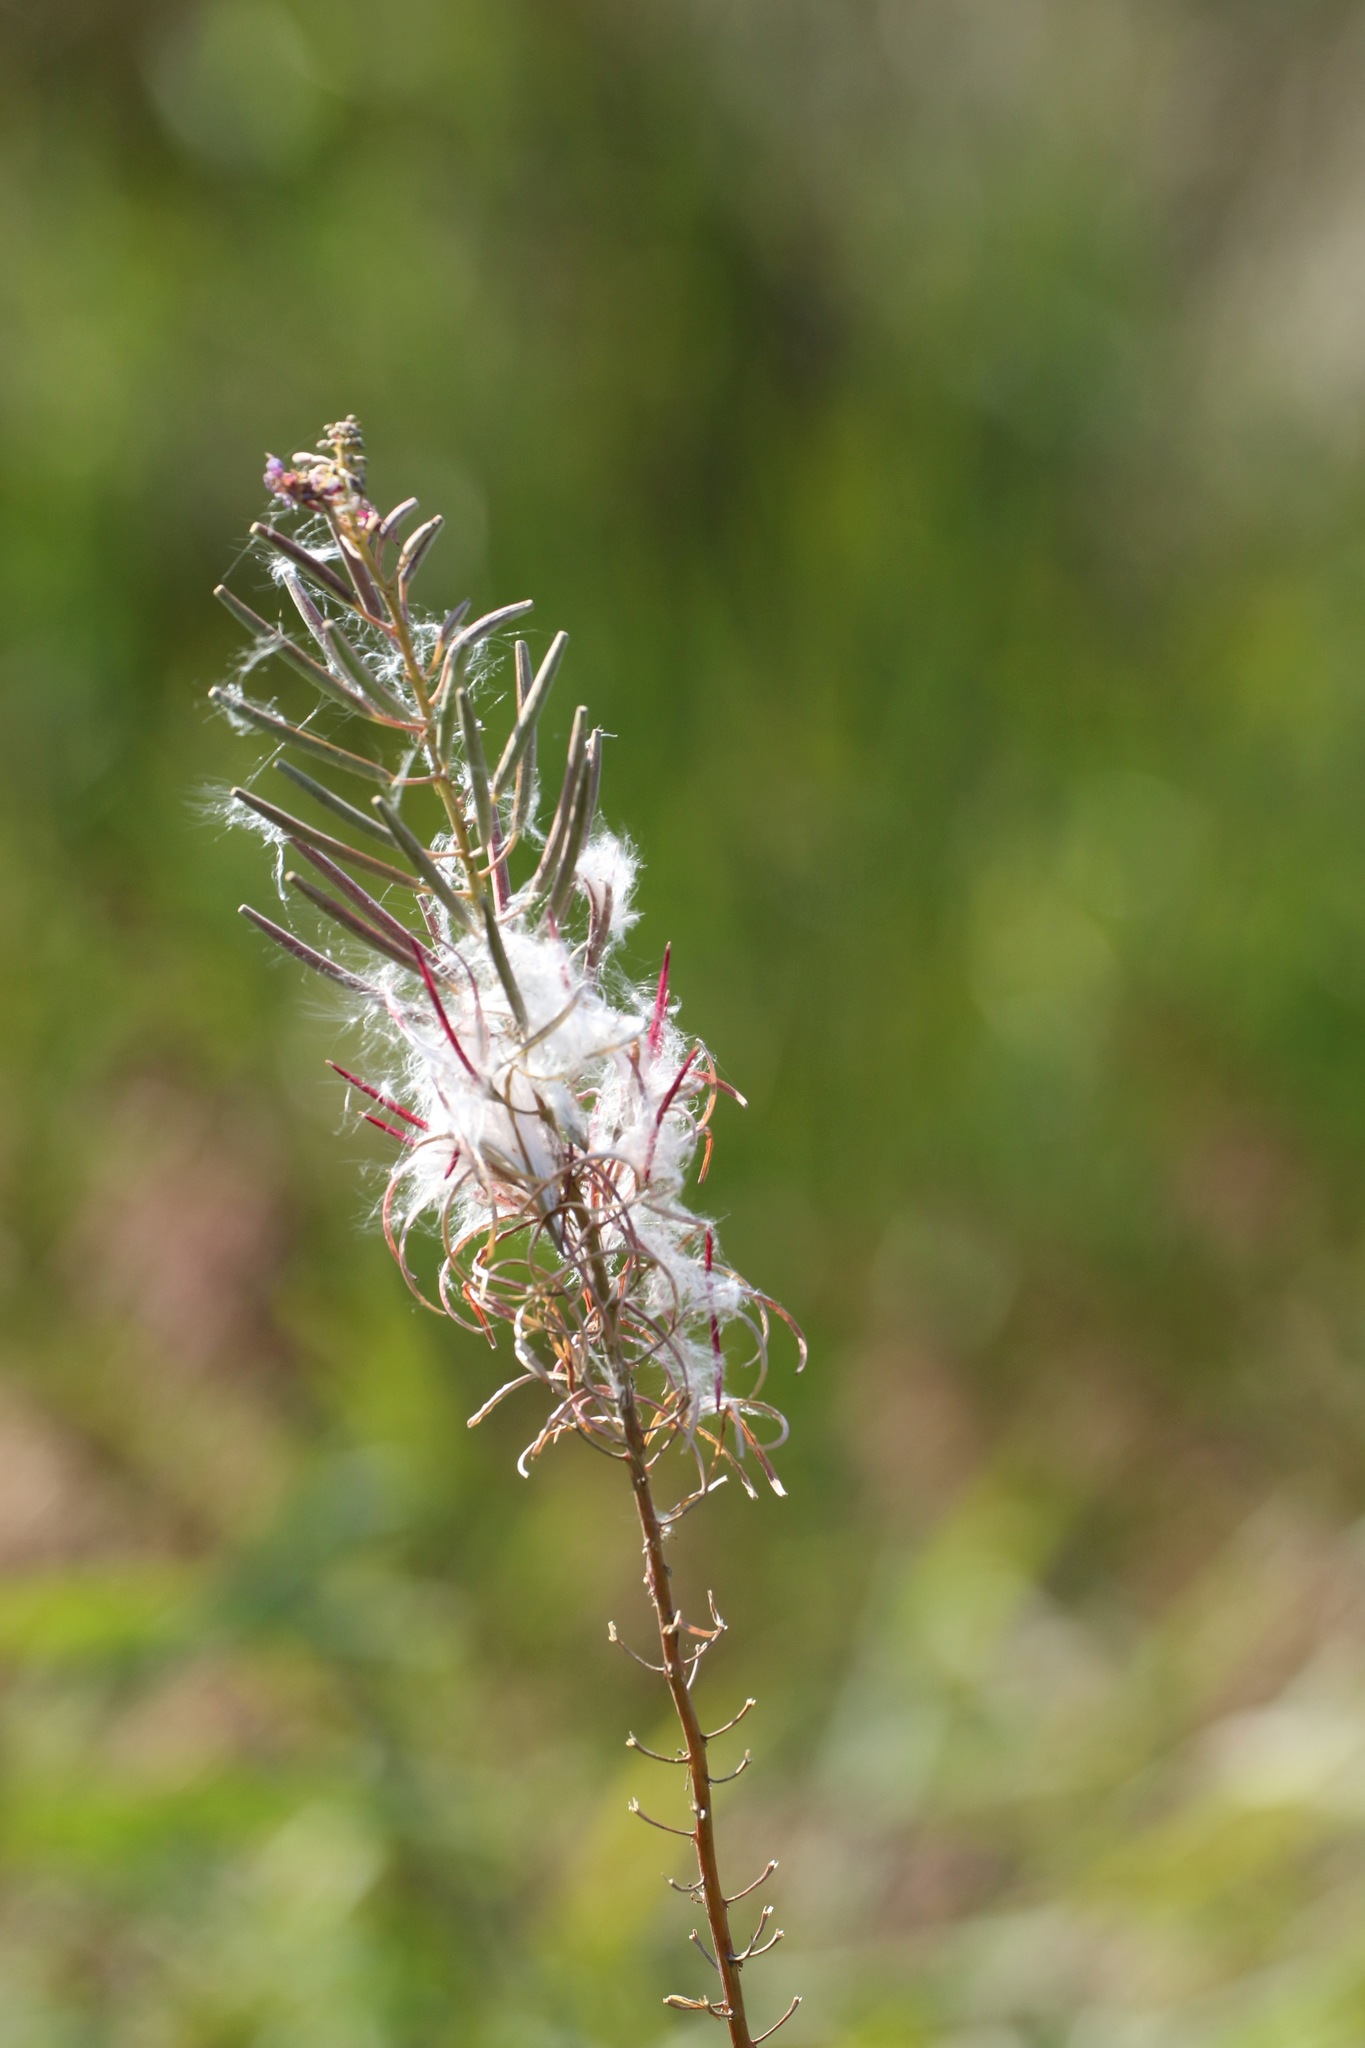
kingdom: Plantae
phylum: Tracheophyta
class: Magnoliopsida
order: Myrtales
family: Onagraceae
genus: Chamaenerion
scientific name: Chamaenerion angustifolium
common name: Fireweed
